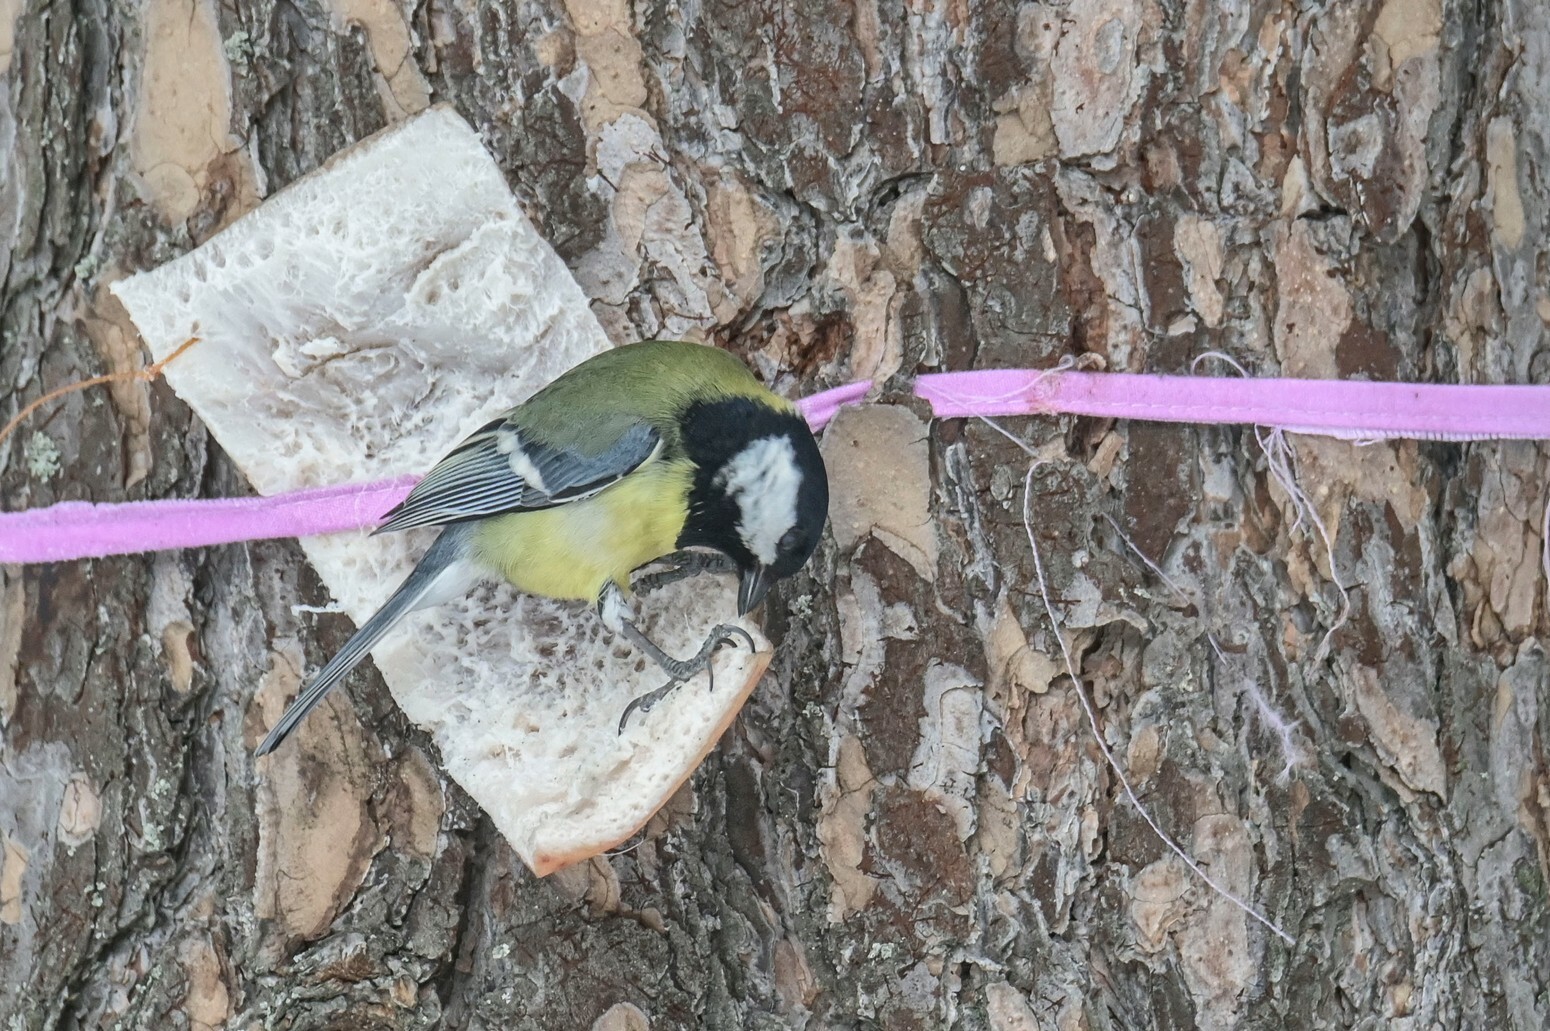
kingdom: Animalia
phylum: Chordata
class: Aves
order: Passeriformes
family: Paridae
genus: Parus
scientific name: Parus major
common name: Great tit
